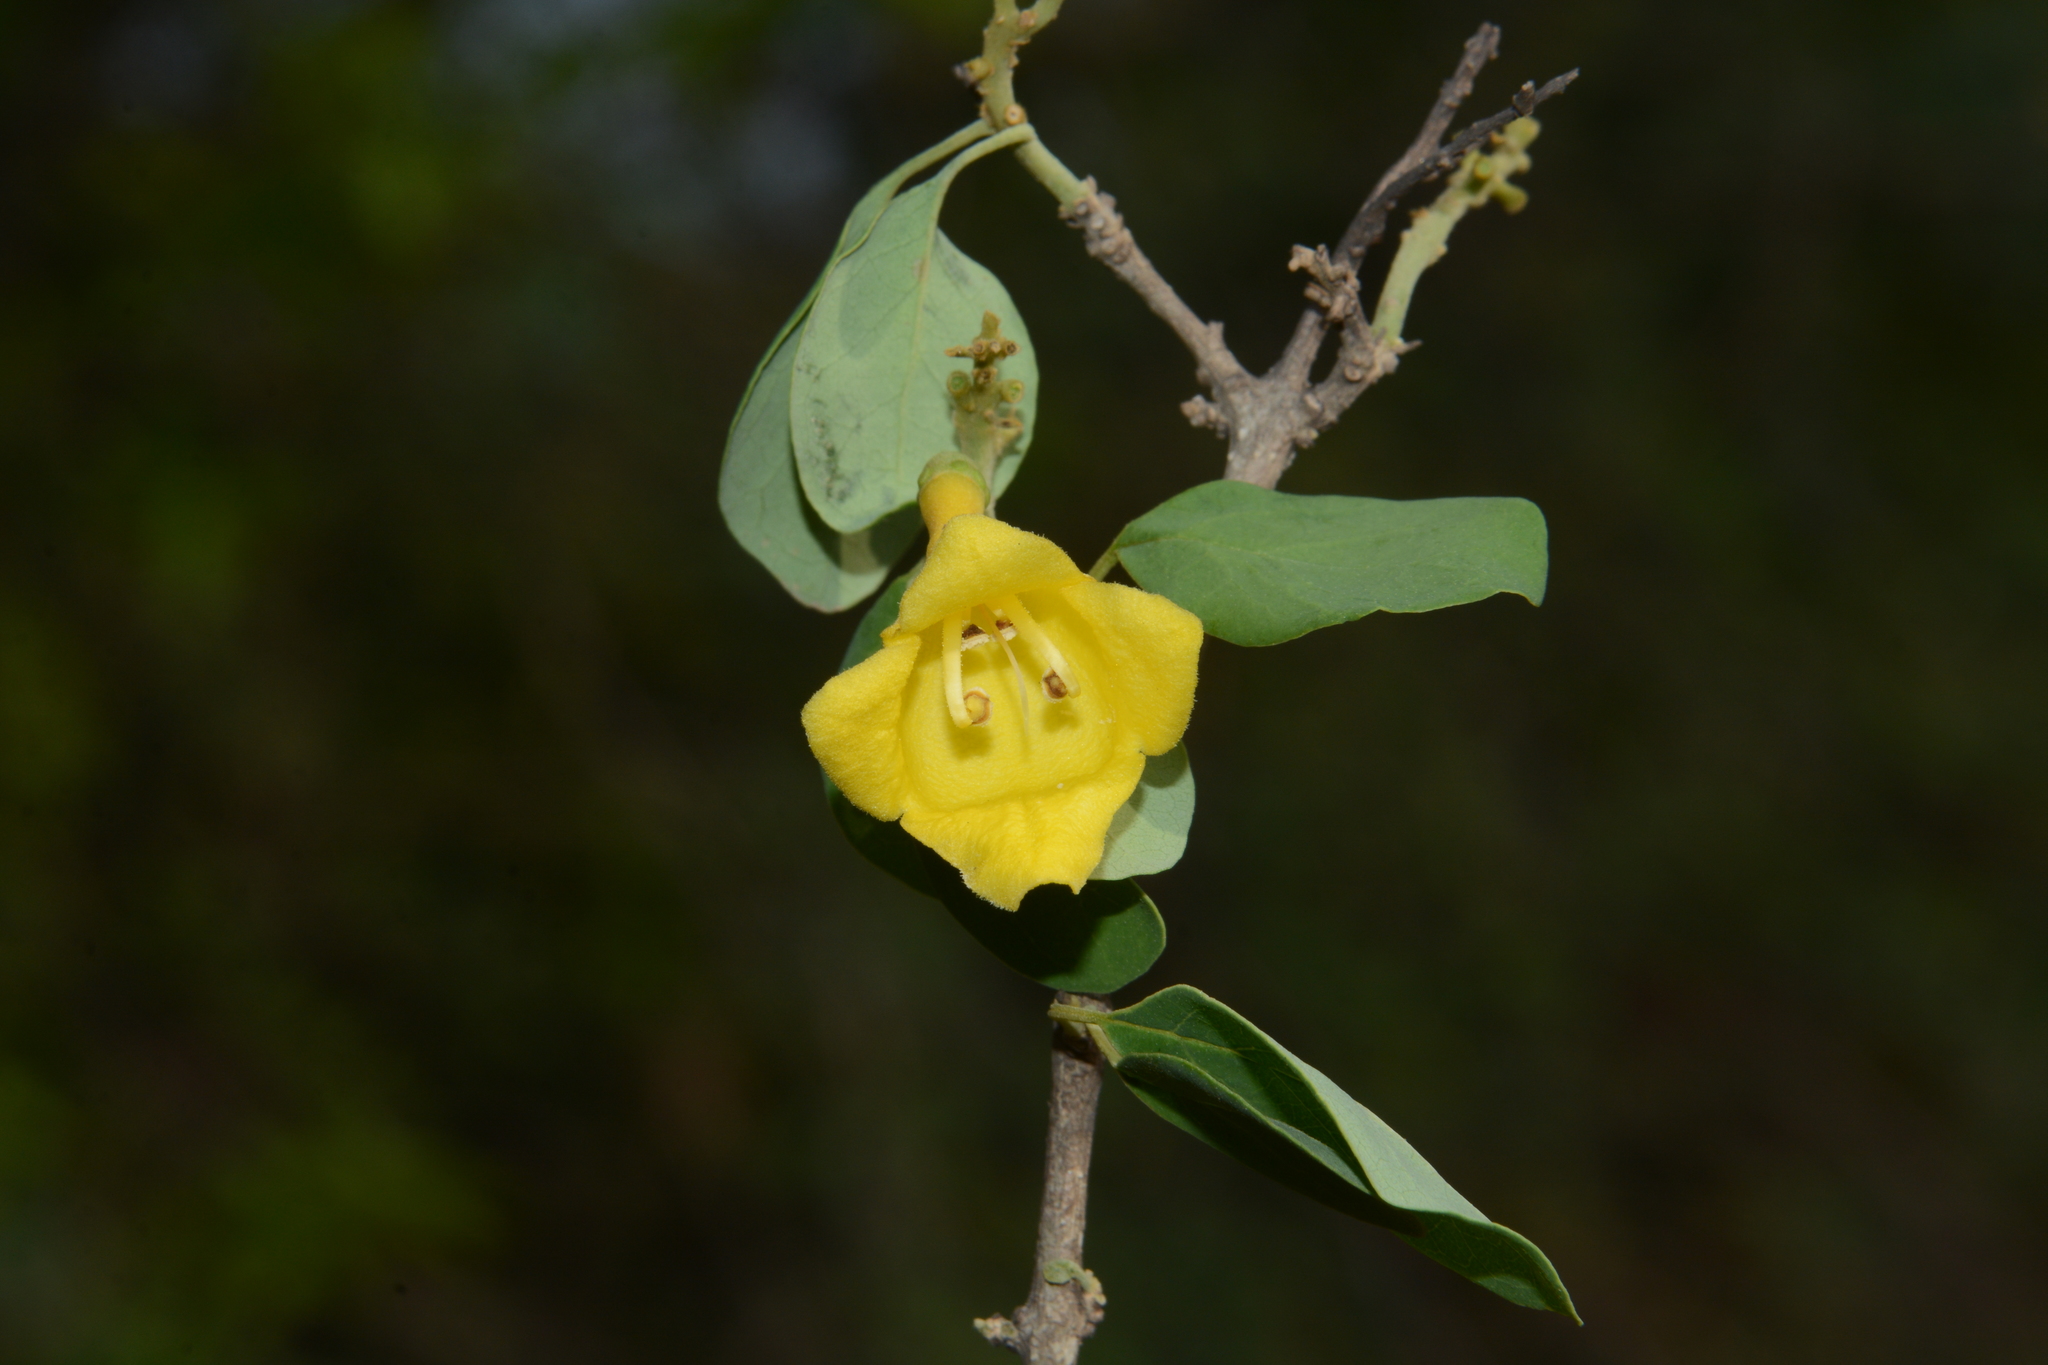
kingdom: Plantae
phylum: Tracheophyta
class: Magnoliopsida
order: Lamiales
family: Lamiaceae
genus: Gmelina
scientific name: Gmelina asiatica
